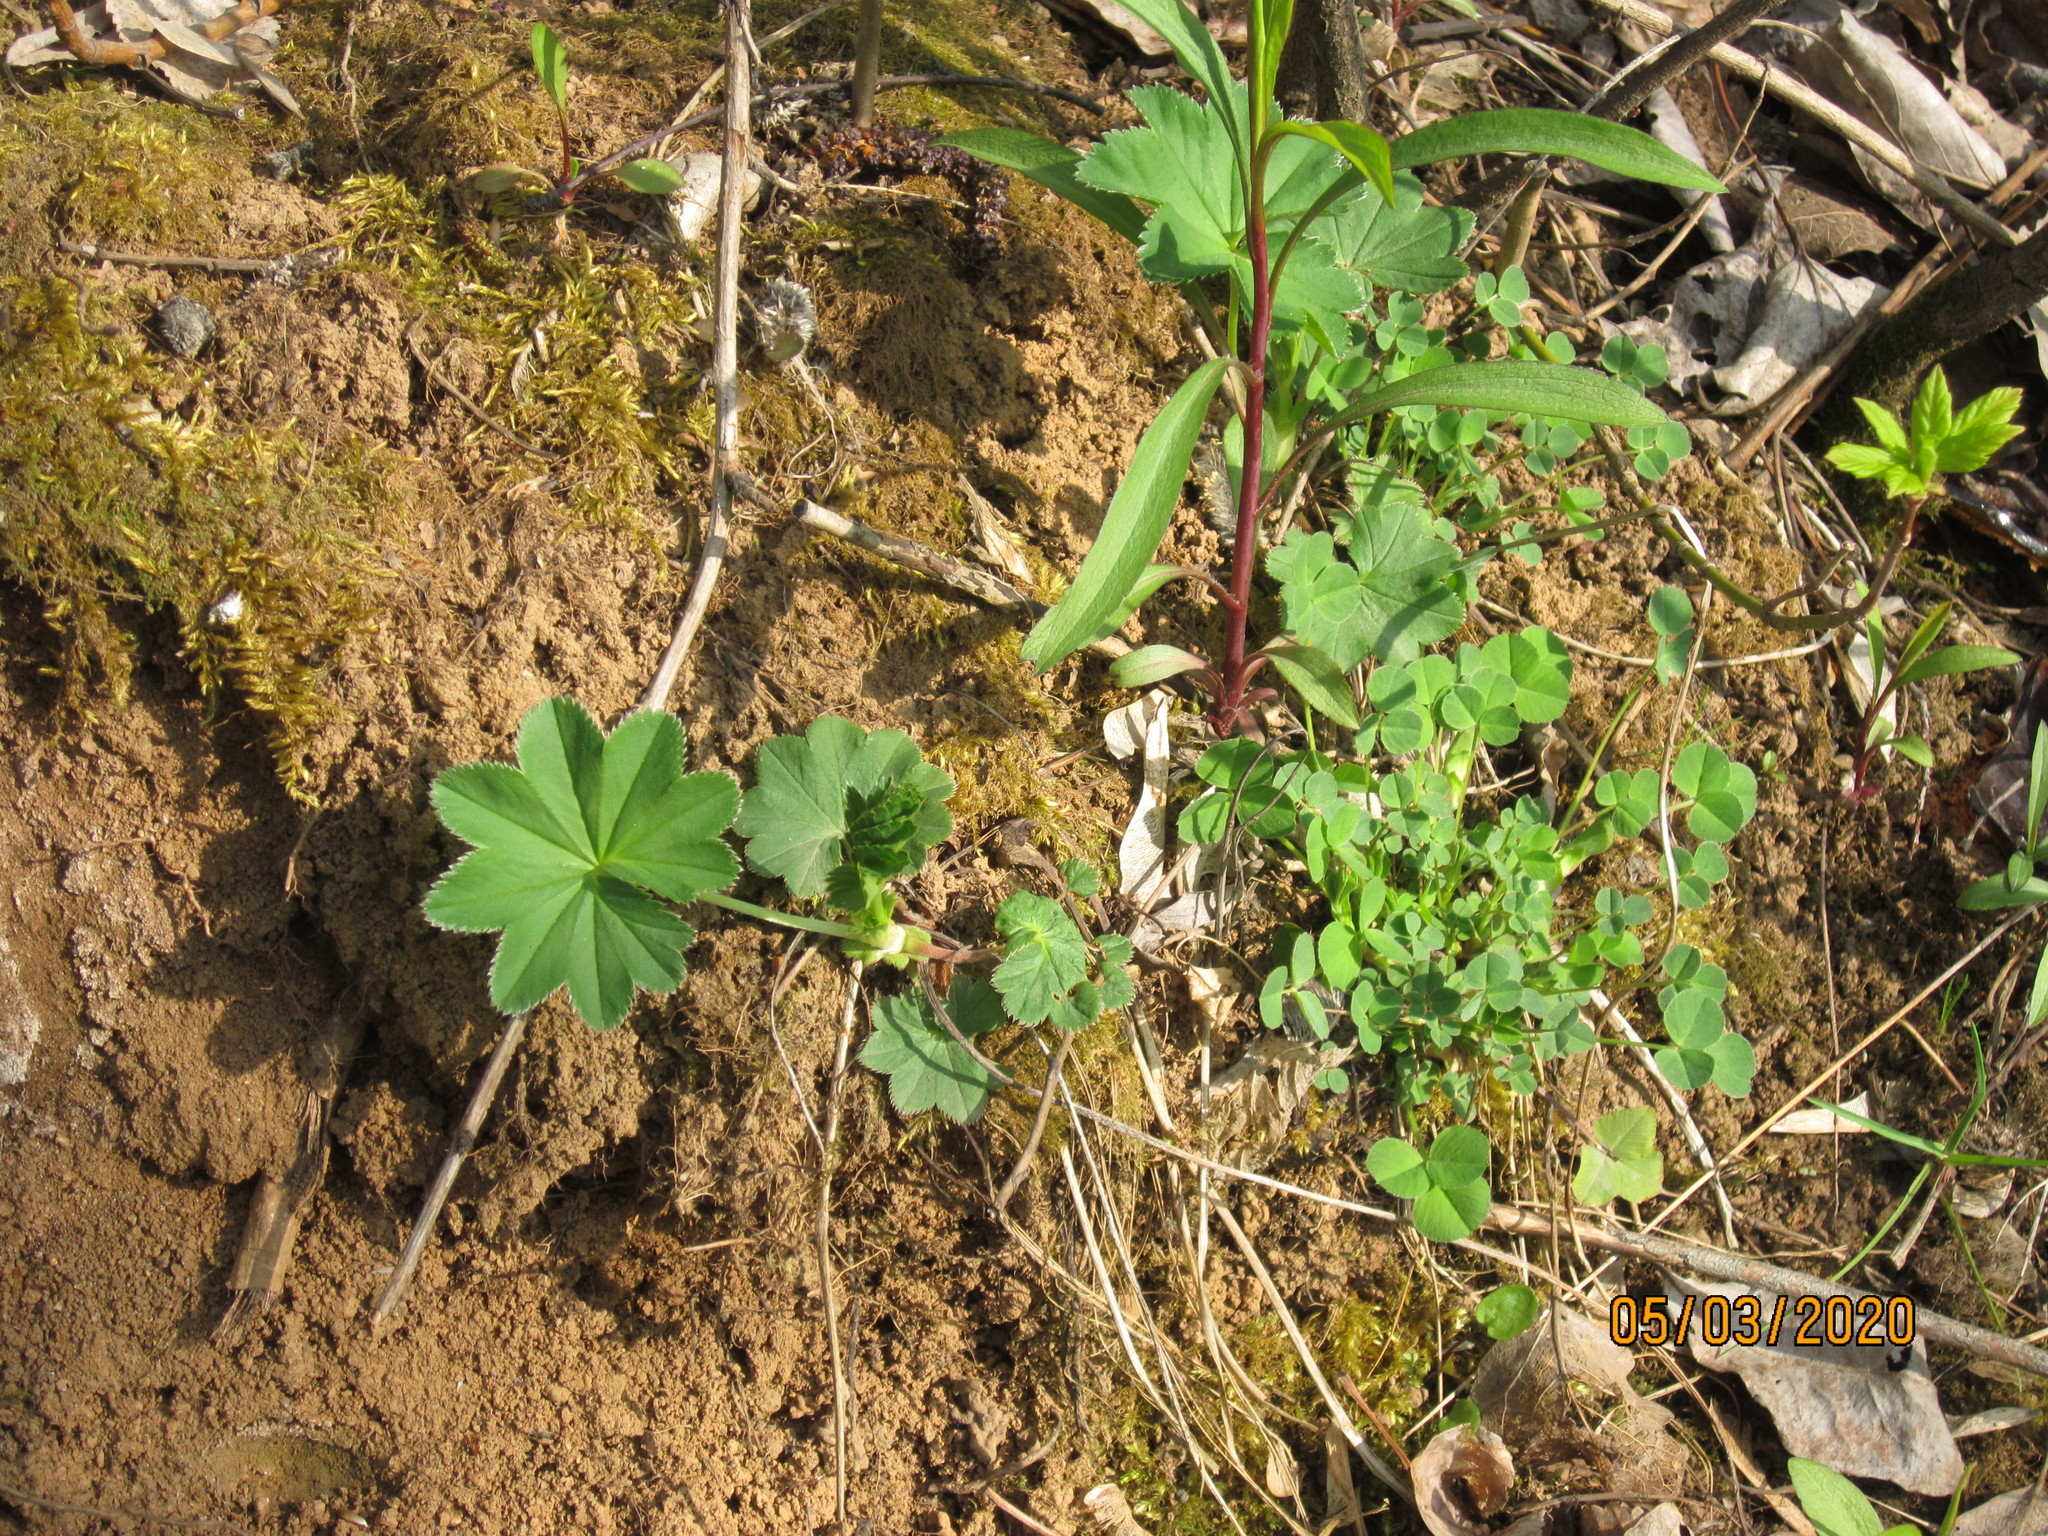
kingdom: Plantae
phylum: Tracheophyta
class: Magnoliopsida
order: Rosales
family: Rosaceae
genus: Alchemilla
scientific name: Alchemilla
